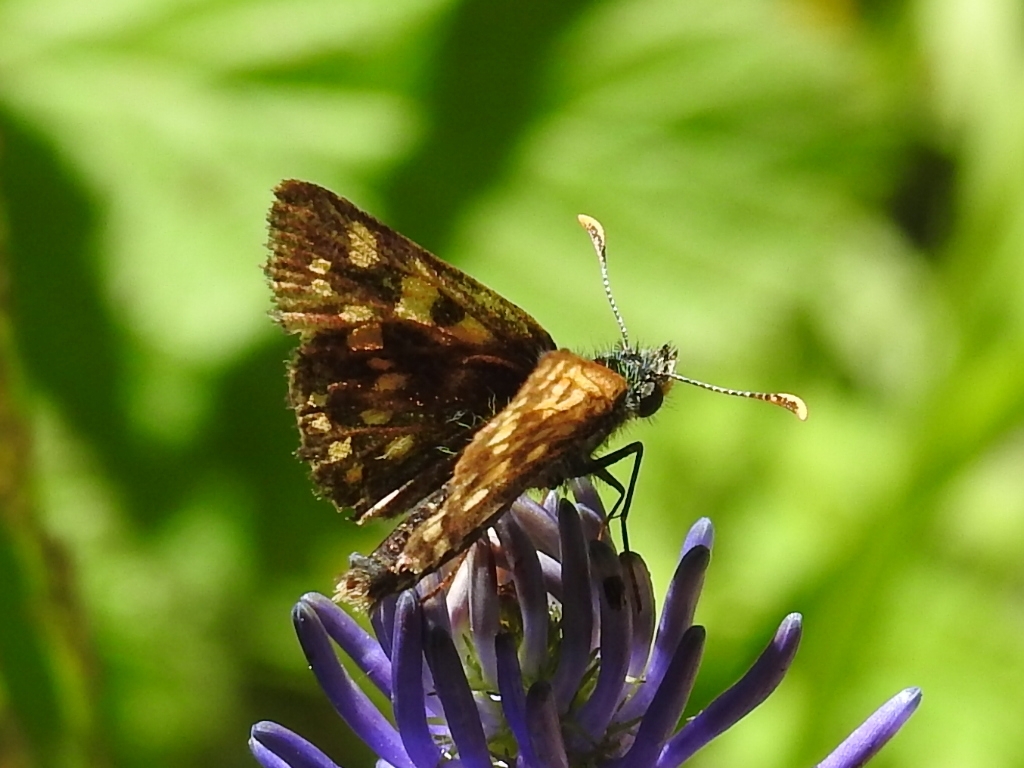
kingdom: Animalia
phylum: Arthropoda
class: Insecta
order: Lepidoptera
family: Hesperiidae
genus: Carterocephalus
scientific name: Carterocephalus palaemon
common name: Chequered skipper
